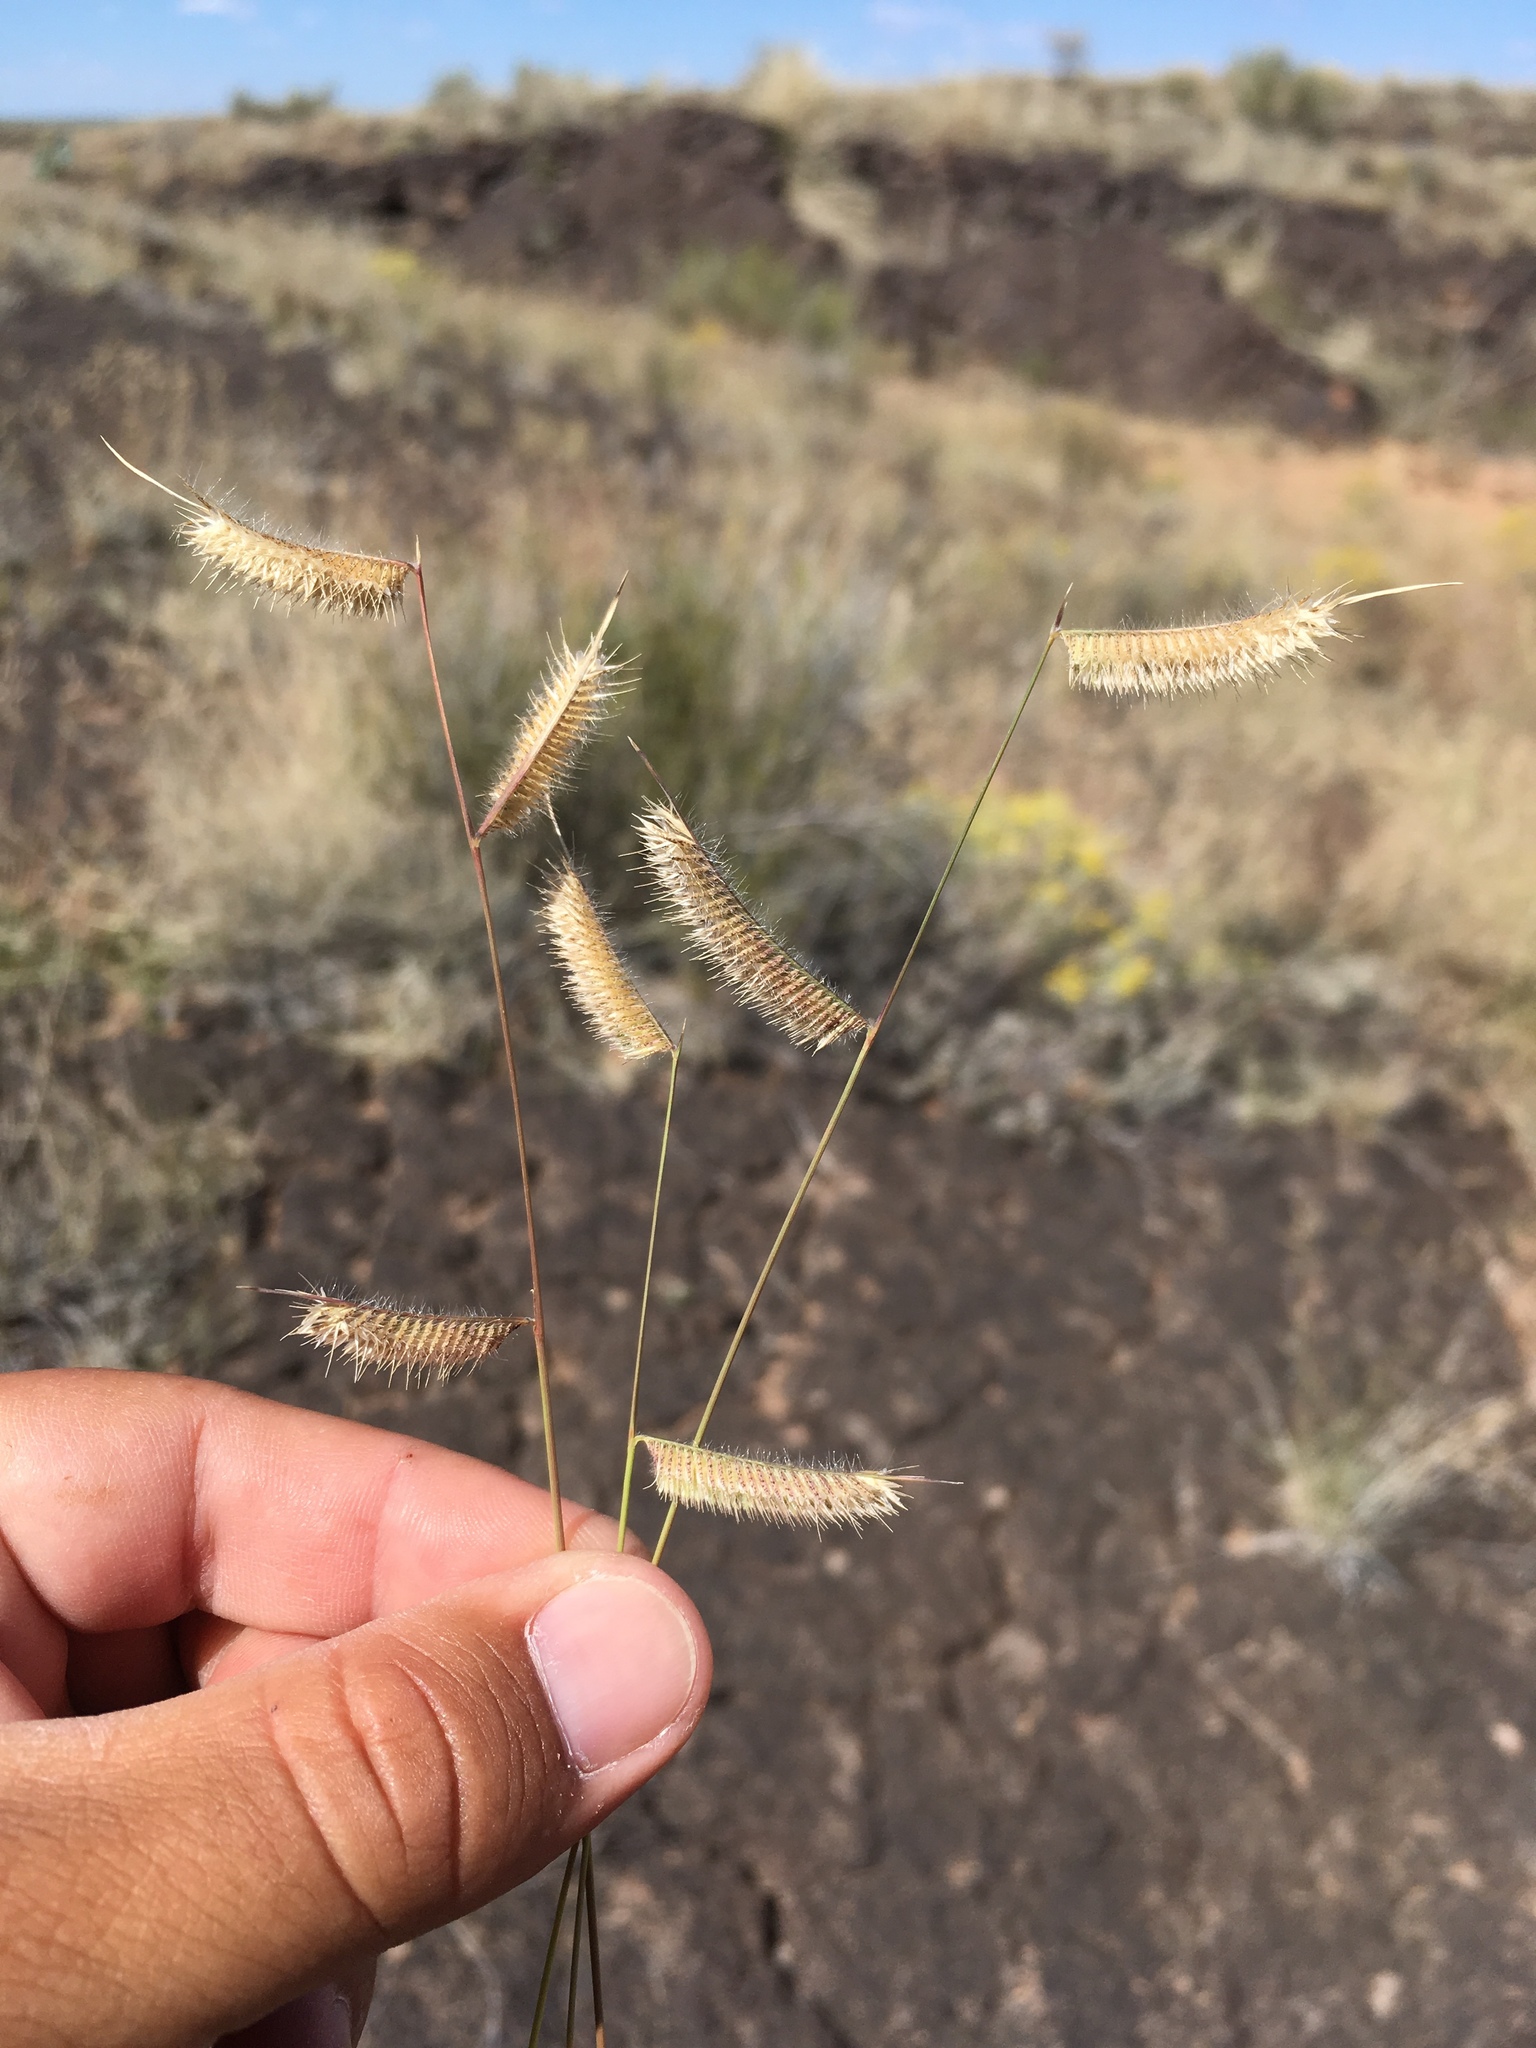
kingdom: Plantae
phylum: Tracheophyta
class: Liliopsida
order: Poales
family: Poaceae
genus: Bouteloua
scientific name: Bouteloua hirsuta
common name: Hairy grama
